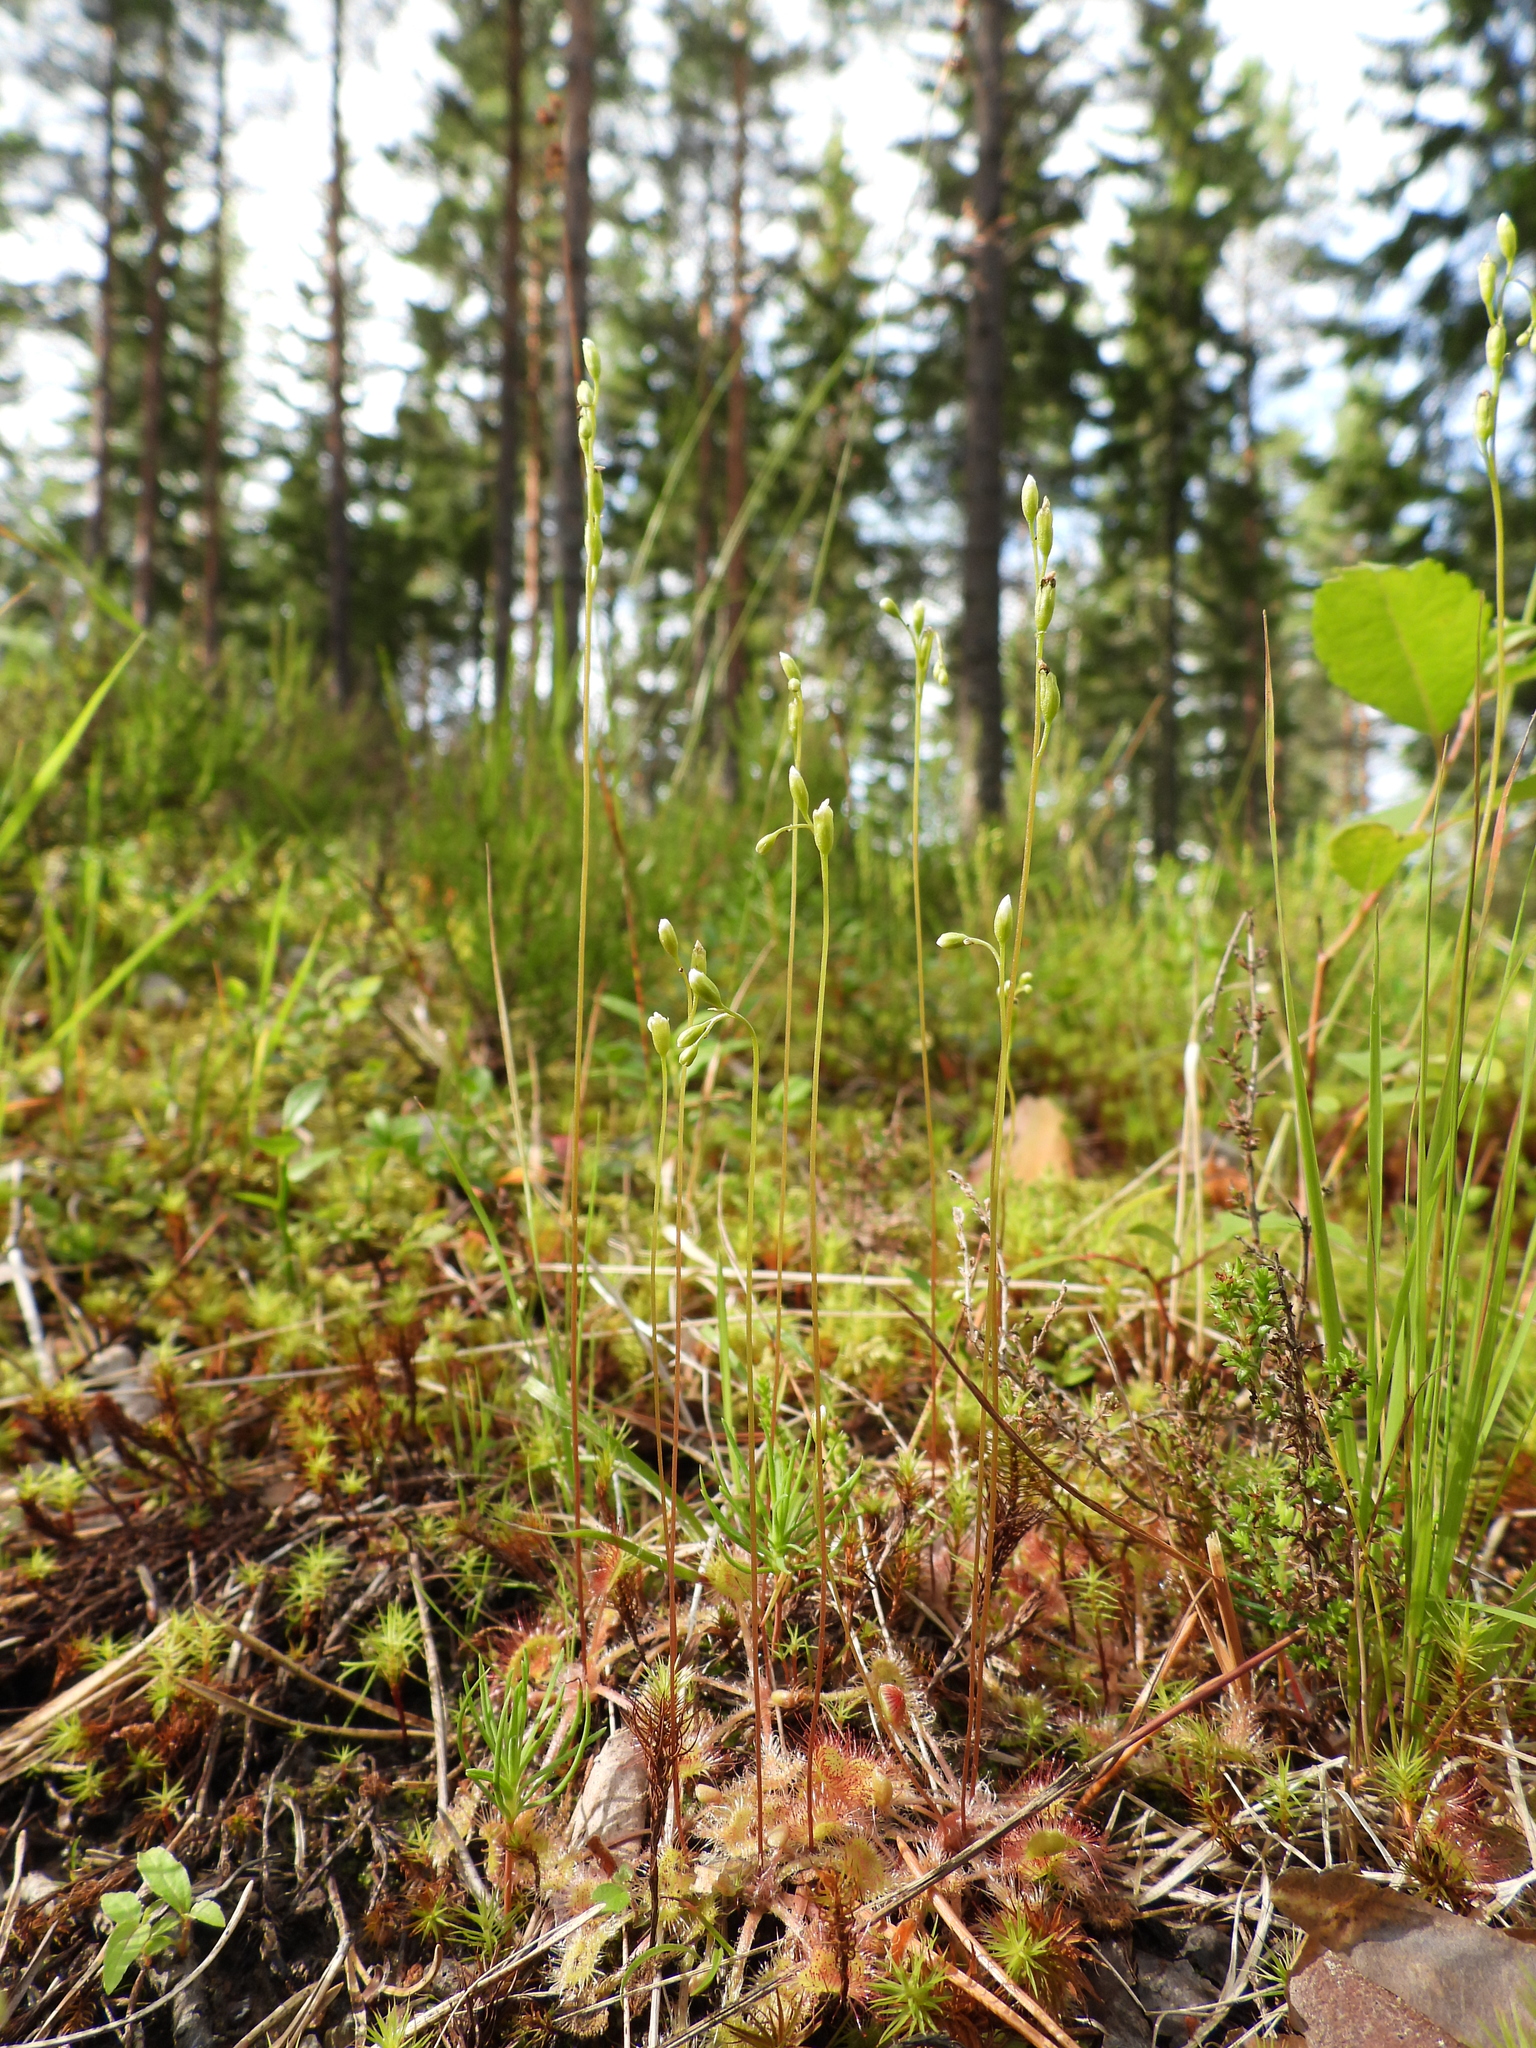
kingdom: Plantae
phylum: Tracheophyta
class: Magnoliopsida
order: Caryophyllales
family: Droseraceae
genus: Drosera
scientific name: Drosera rotundifolia
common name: Round-leaved sundew
